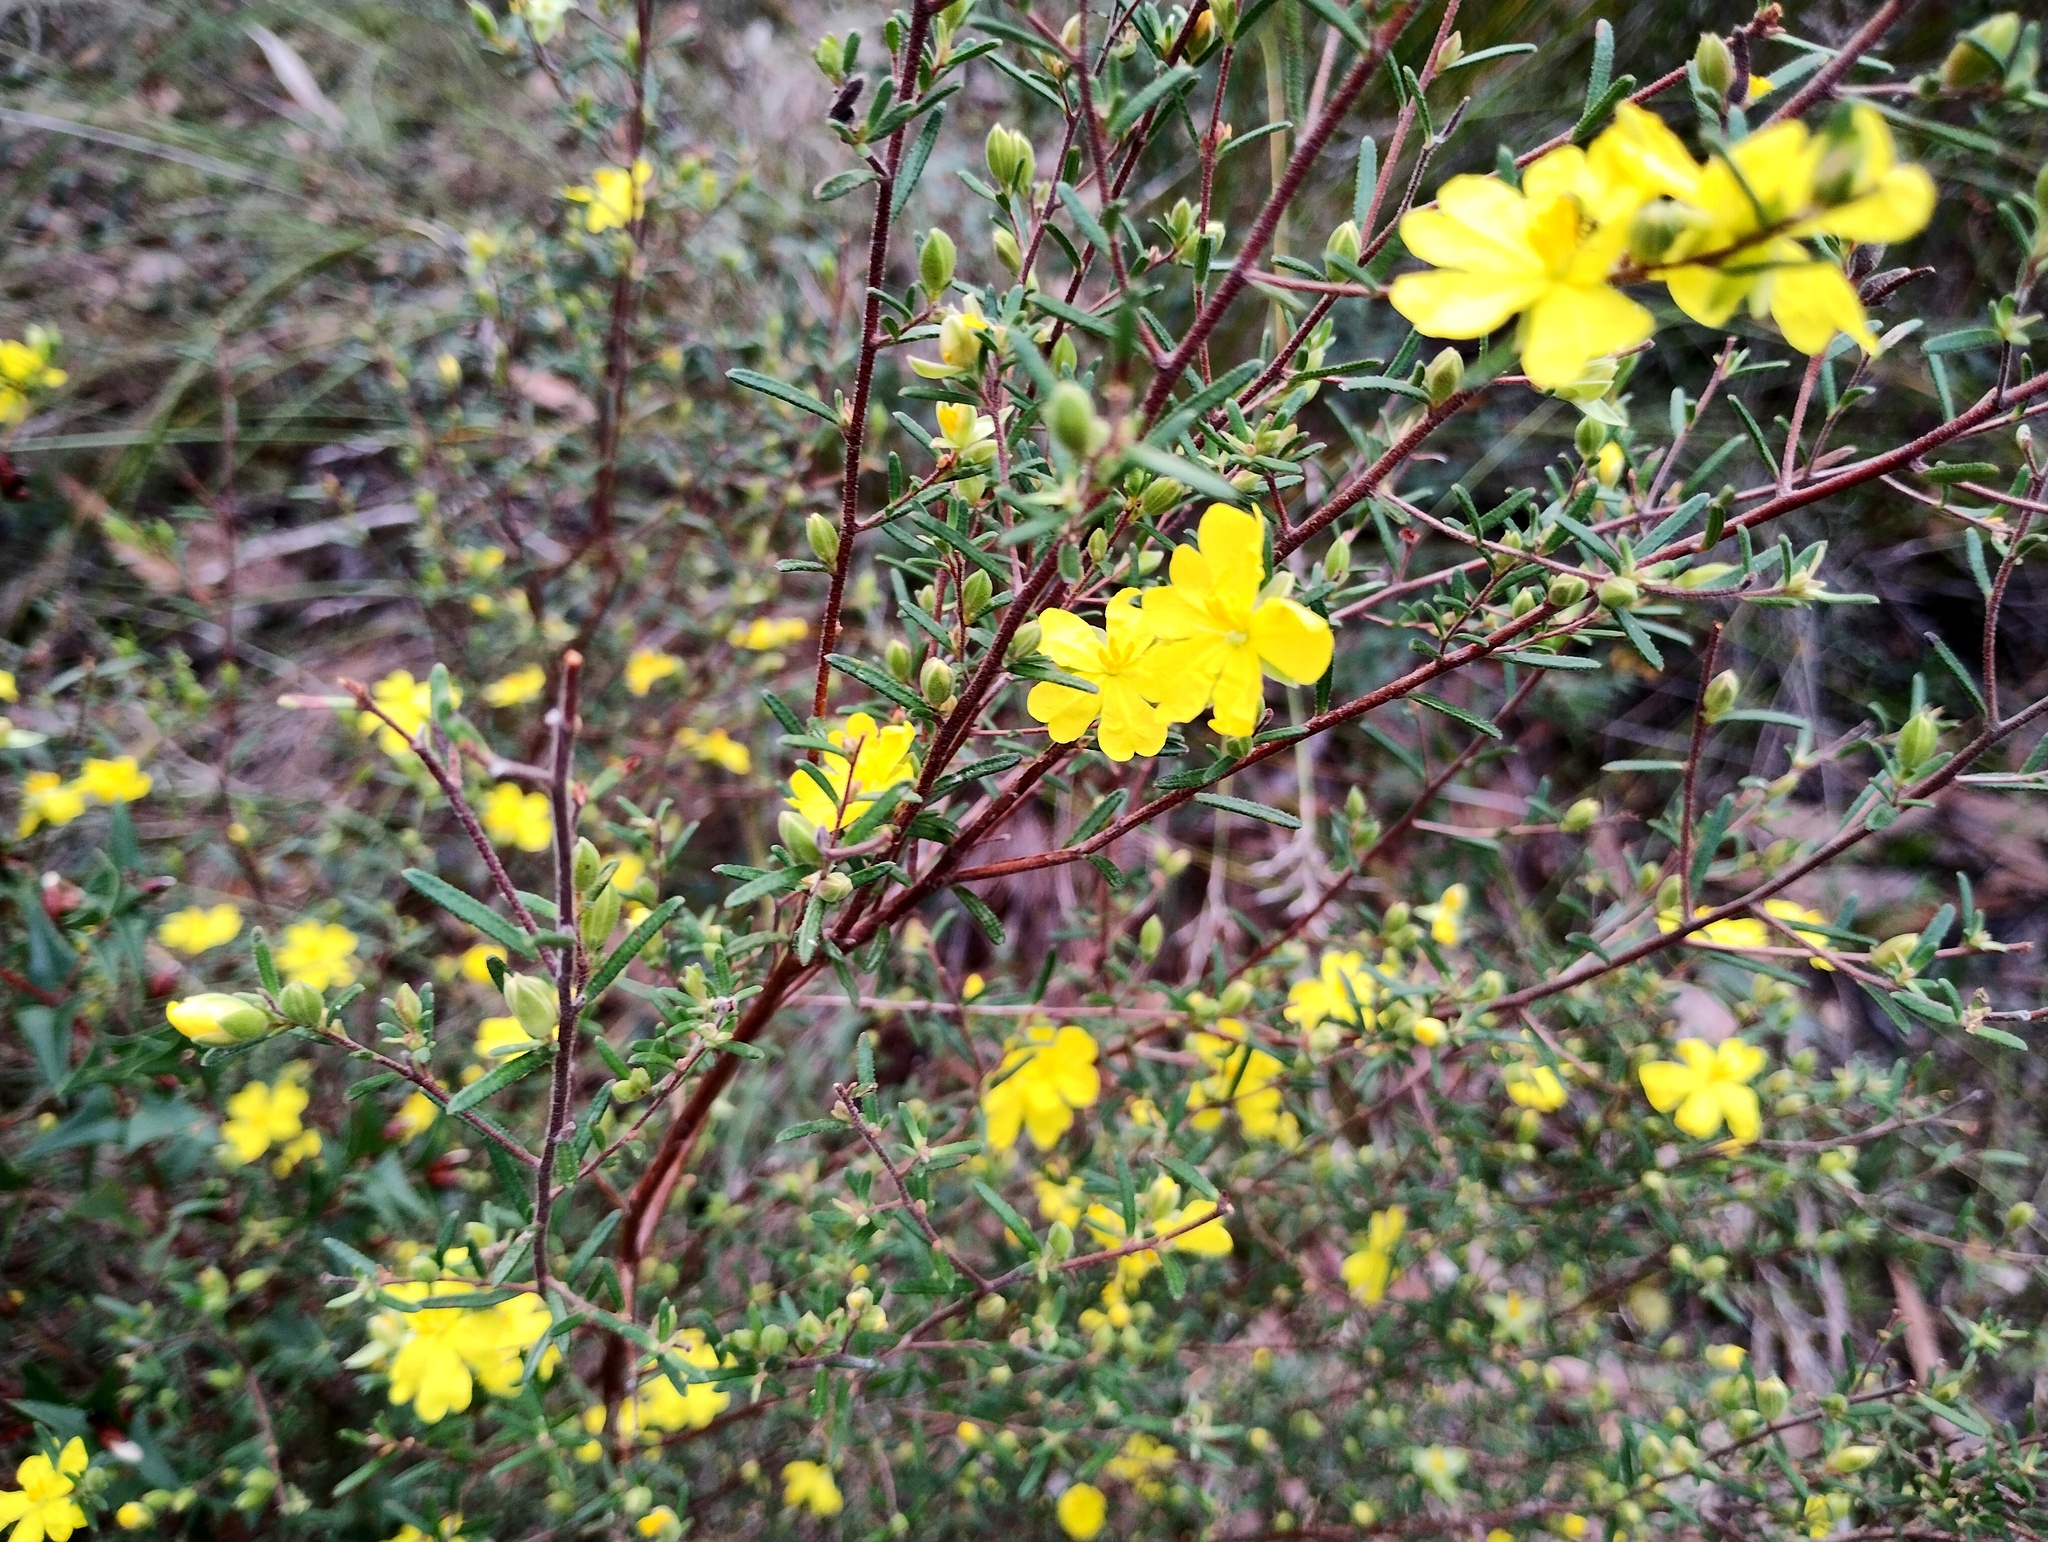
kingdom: Plantae
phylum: Tracheophyta
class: Magnoliopsida
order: Dilleniales
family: Dilleniaceae
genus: Hibbertia
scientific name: Hibbertia riparia
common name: Erect guinea-flower
